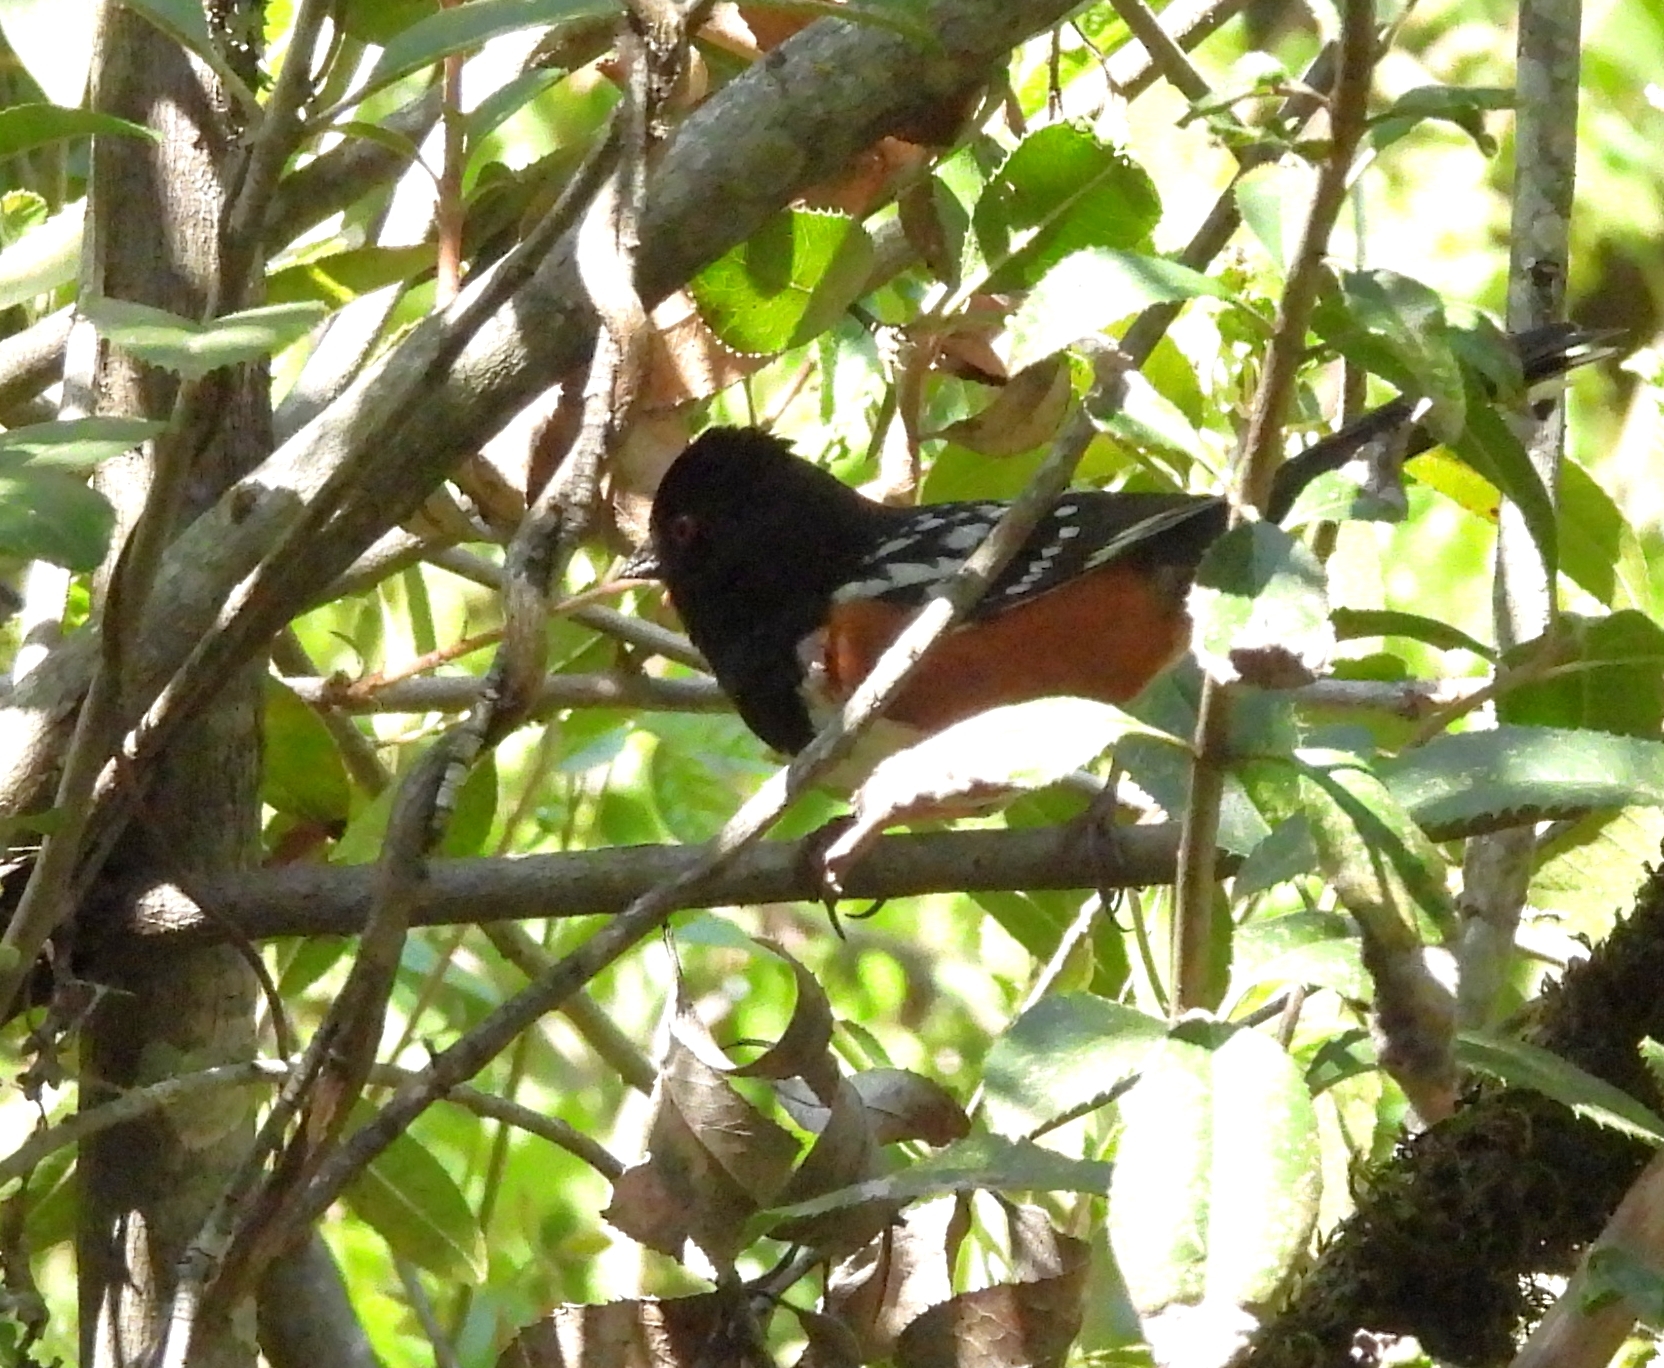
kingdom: Animalia
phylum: Chordata
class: Aves
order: Passeriformes
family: Passerellidae
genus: Pipilo
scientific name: Pipilo maculatus
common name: Spotted towhee
